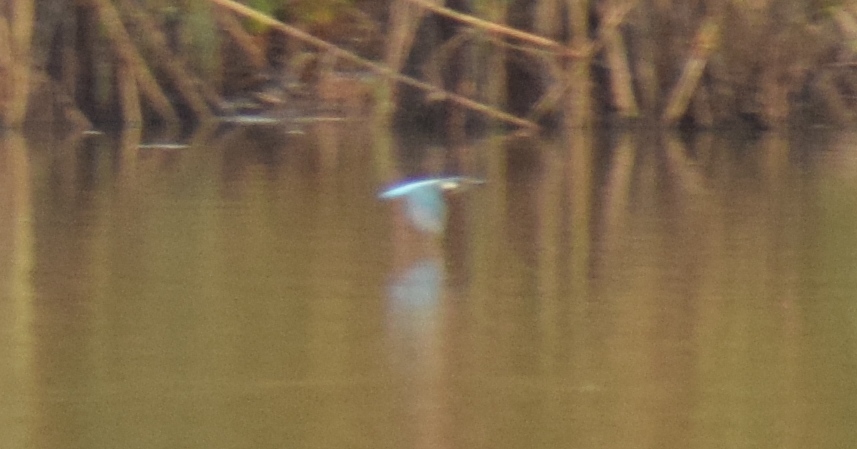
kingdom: Animalia
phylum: Chordata
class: Aves
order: Coraciiformes
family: Alcedinidae
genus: Alcedo
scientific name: Alcedo atthis
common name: Common kingfisher
